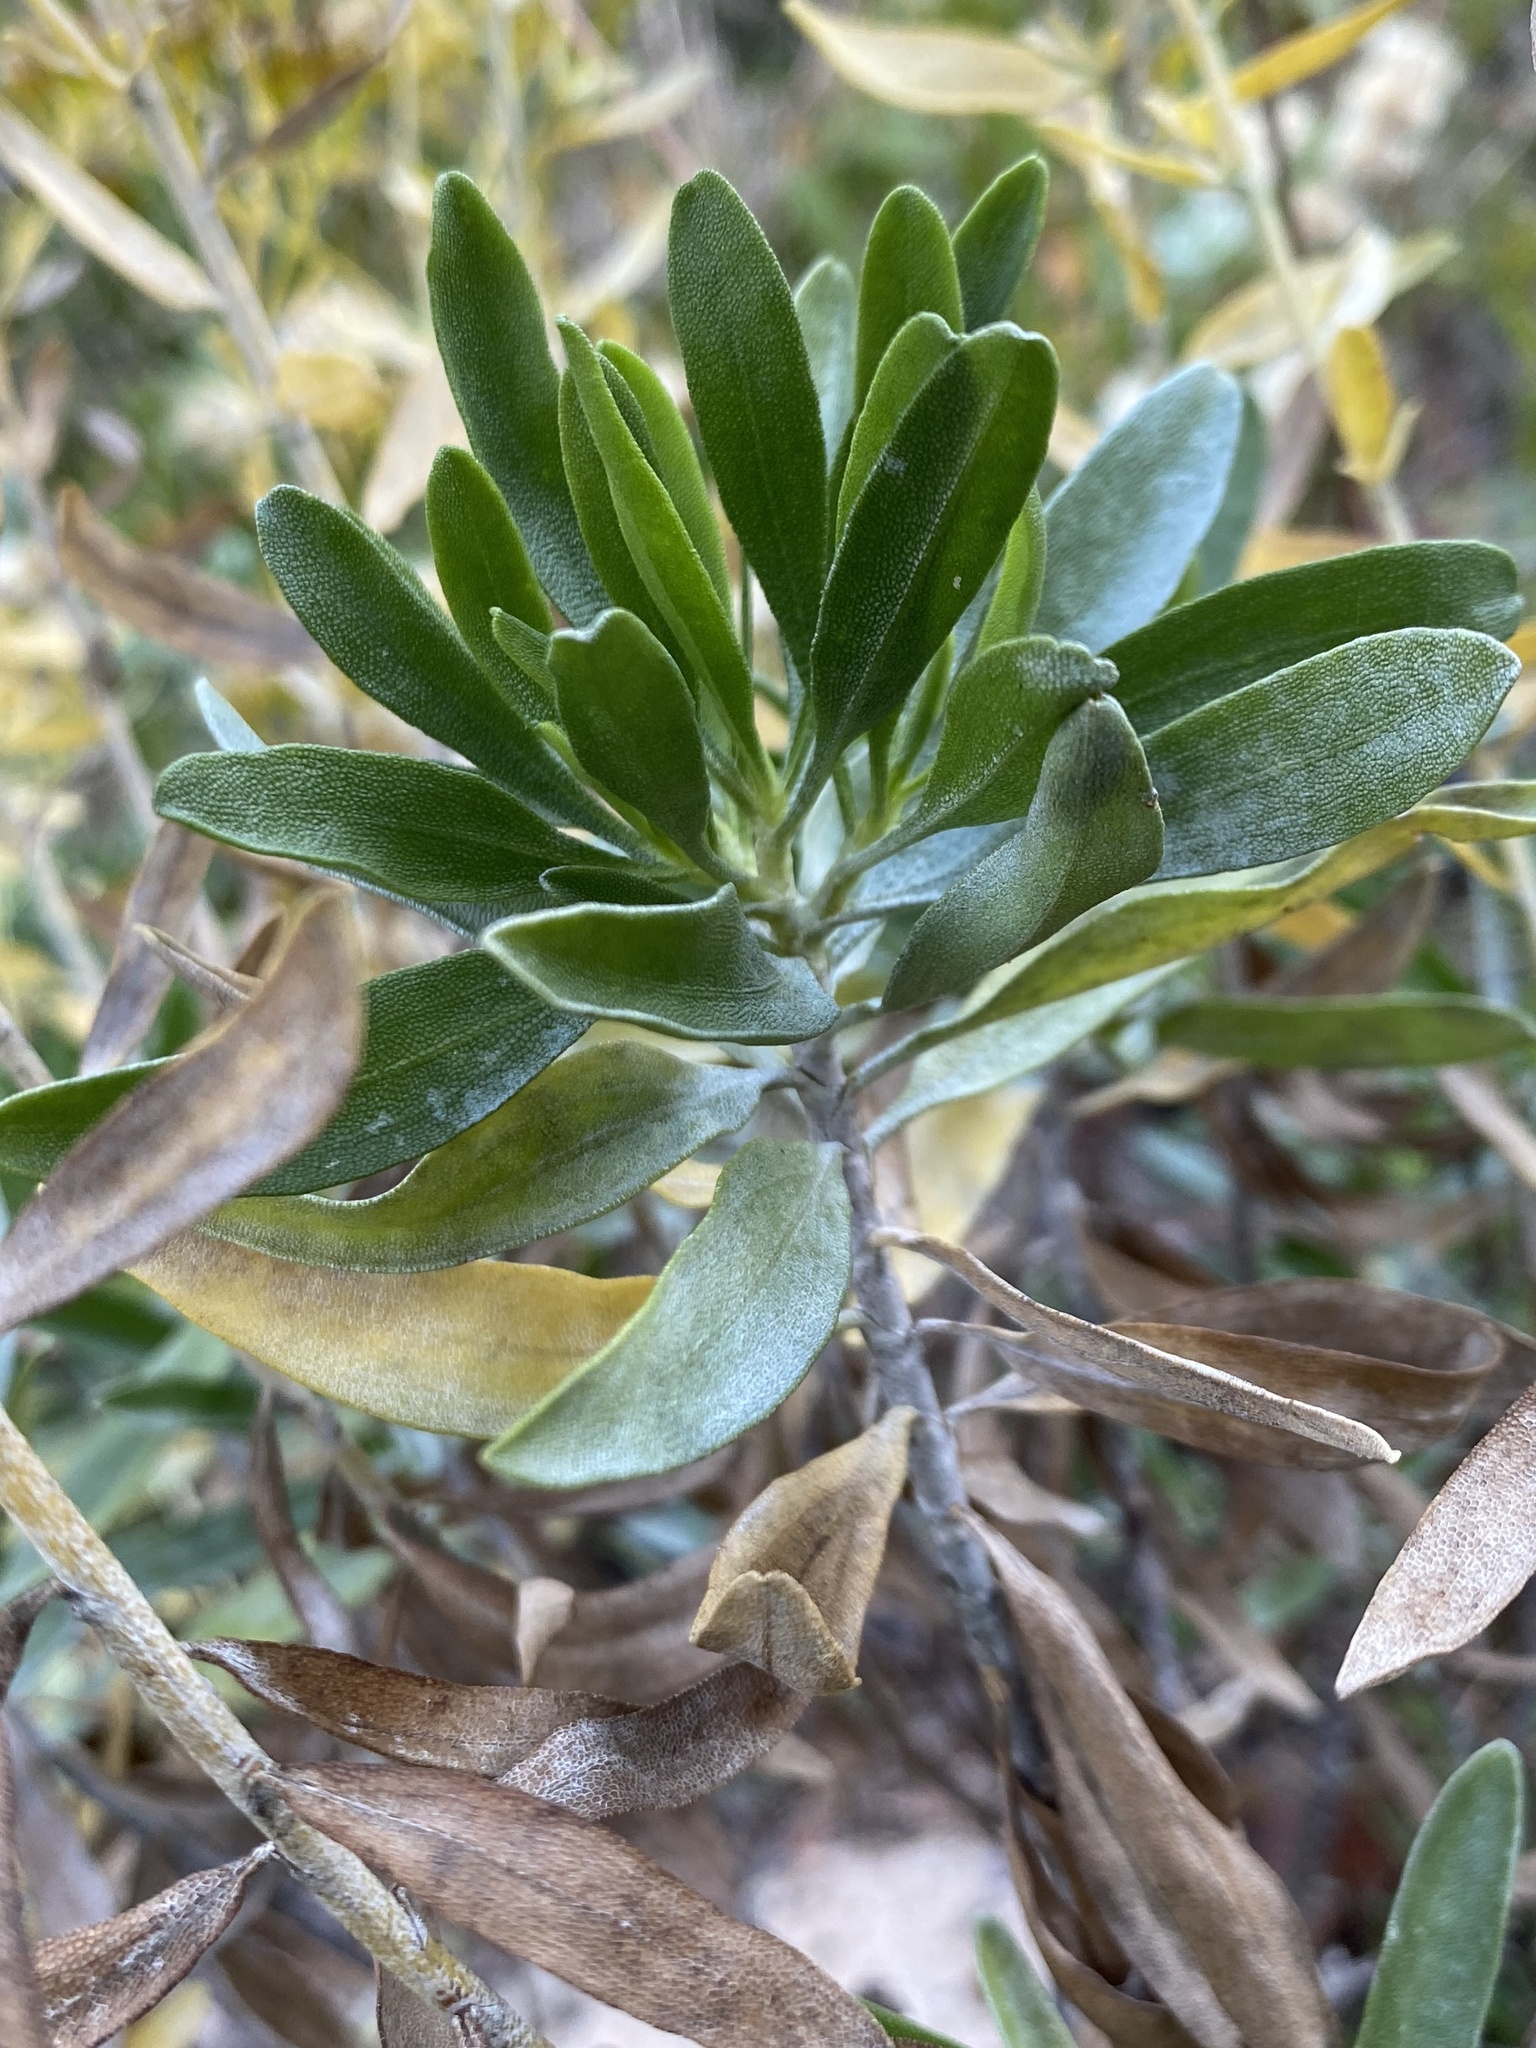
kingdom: Plantae
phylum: Tracheophyta
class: Magnoliopsida
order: Asterales
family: Asteraceae
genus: Chrysoma
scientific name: Chrysoma pauciflosculosa
